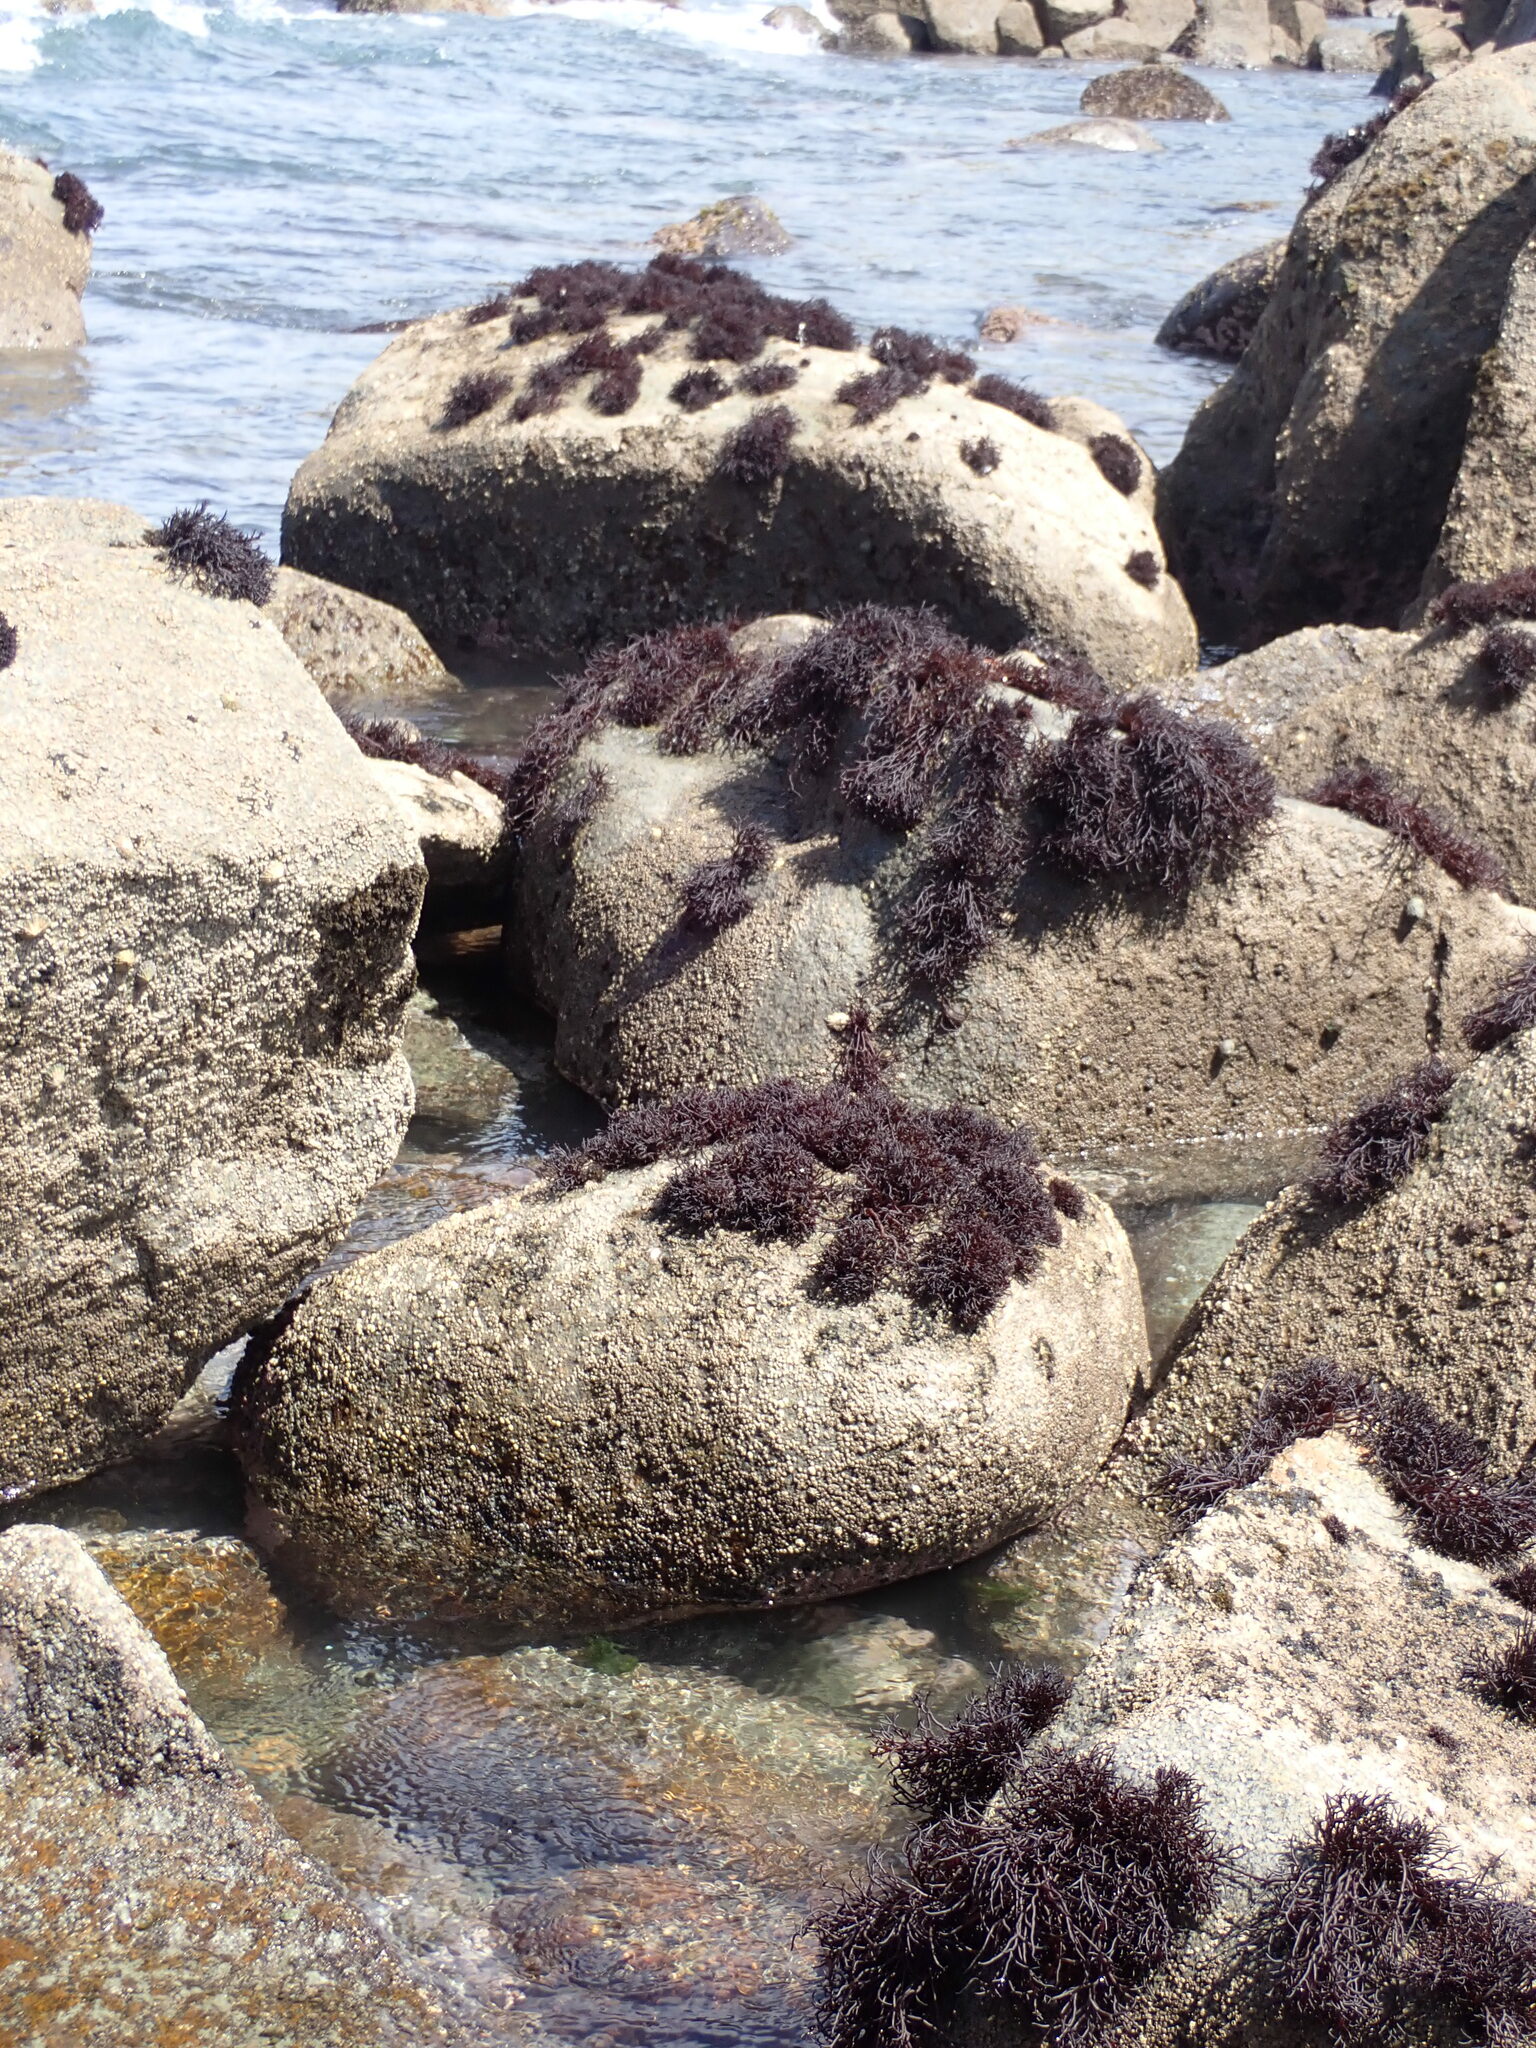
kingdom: Plantae
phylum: Rhodophyta
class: Florideophyceae
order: Hildenbrandiales
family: Hildenbrandiaceae
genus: Apophlaea
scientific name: Apophlaea lyallii
